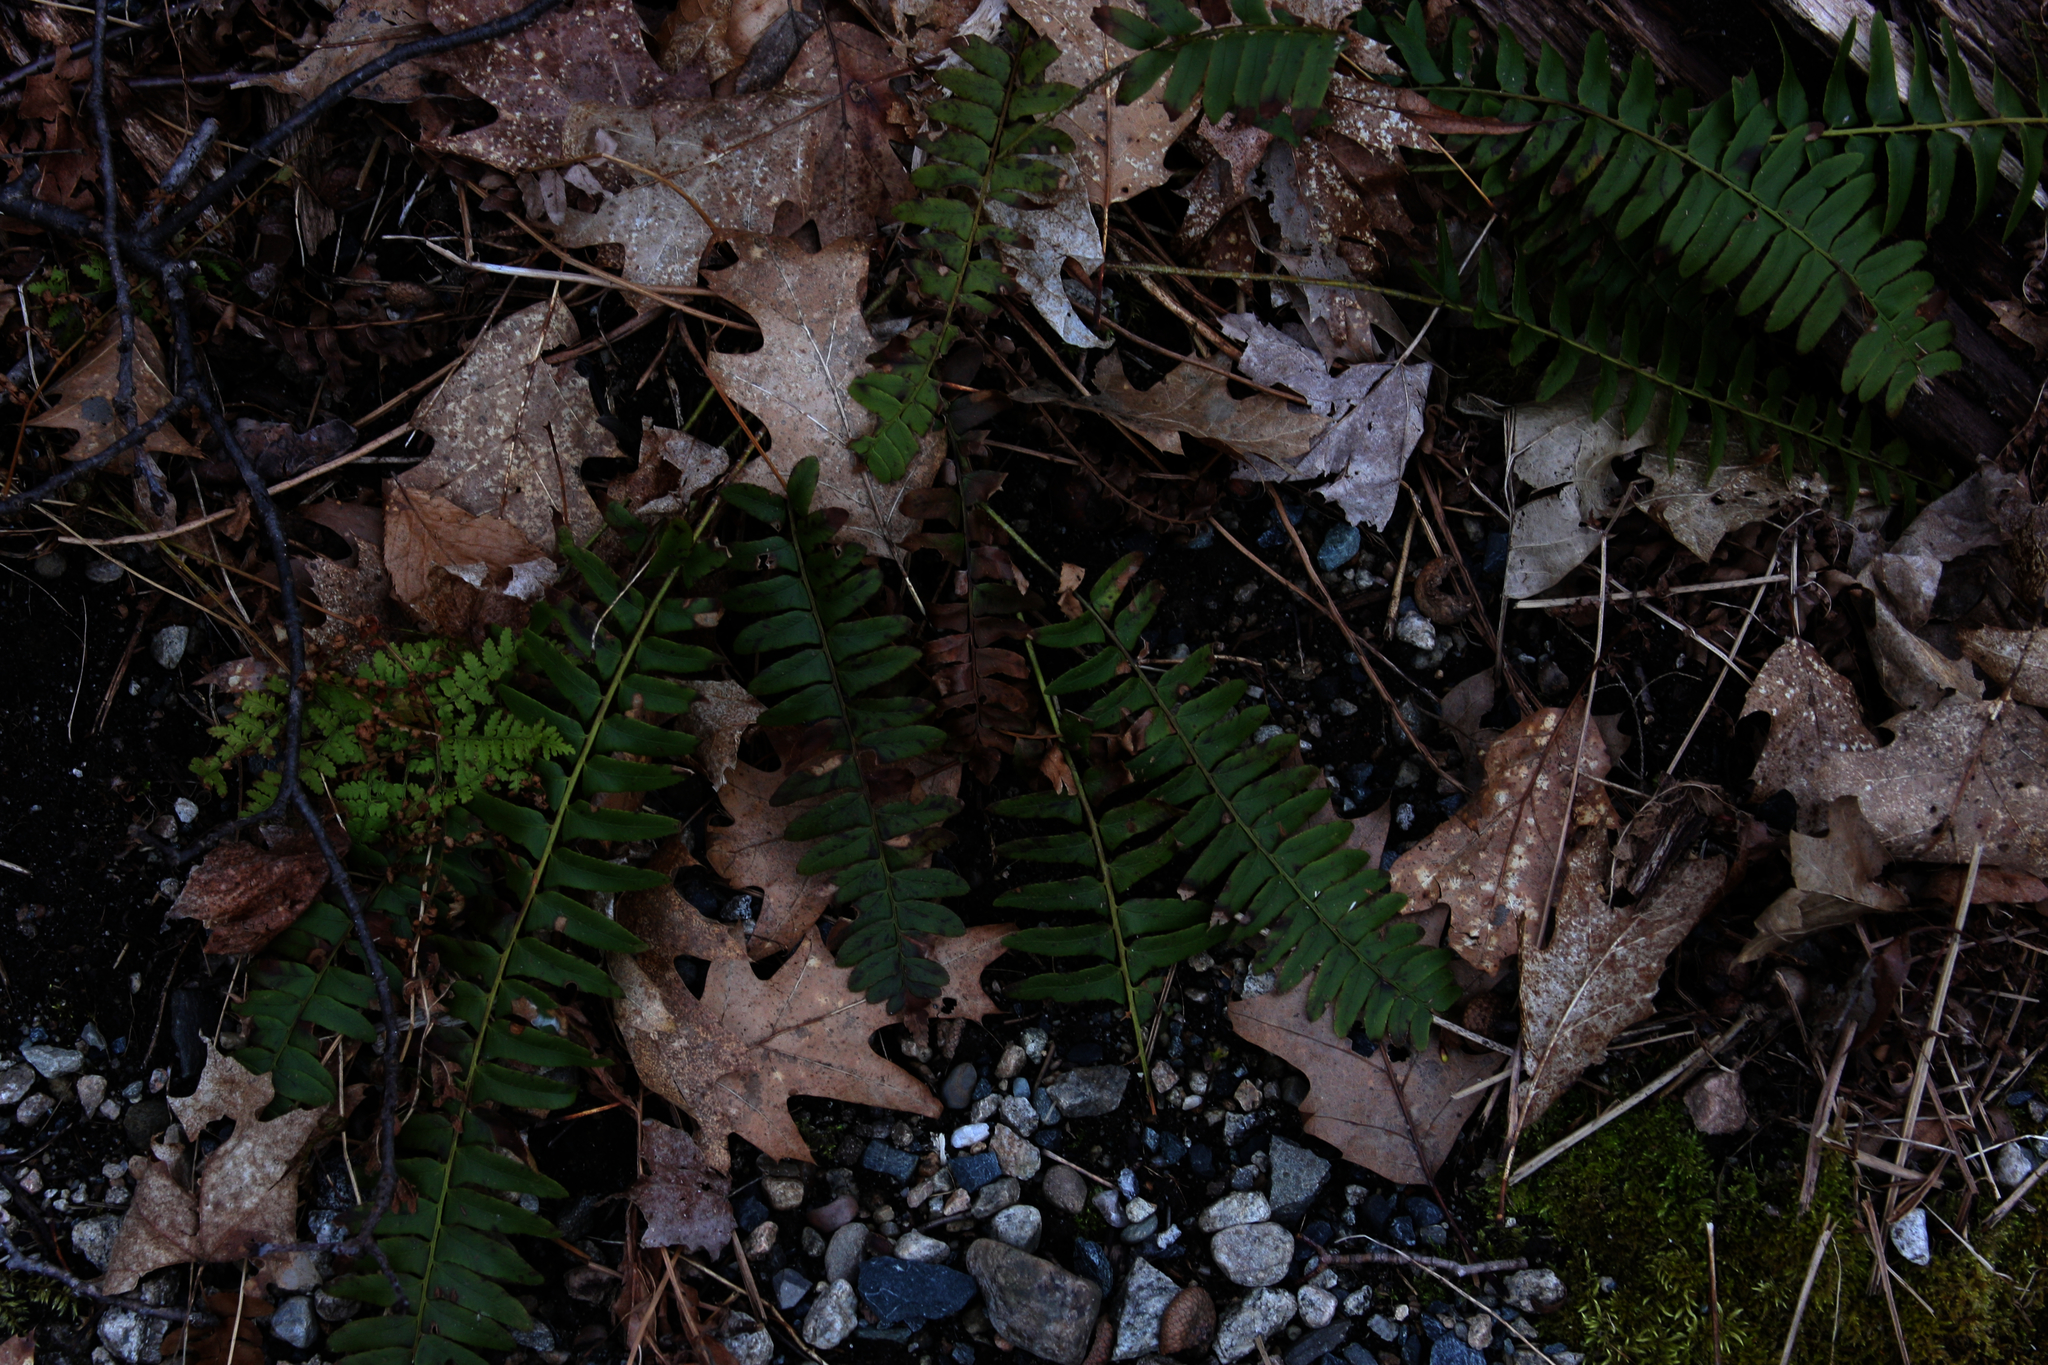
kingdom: Plantae
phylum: Tracheophyta
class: Polypodiopsida
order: Polypodiales
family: Dryopteridaceae
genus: Polystichum
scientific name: Polystichum acrostichoides
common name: Christmas fern
